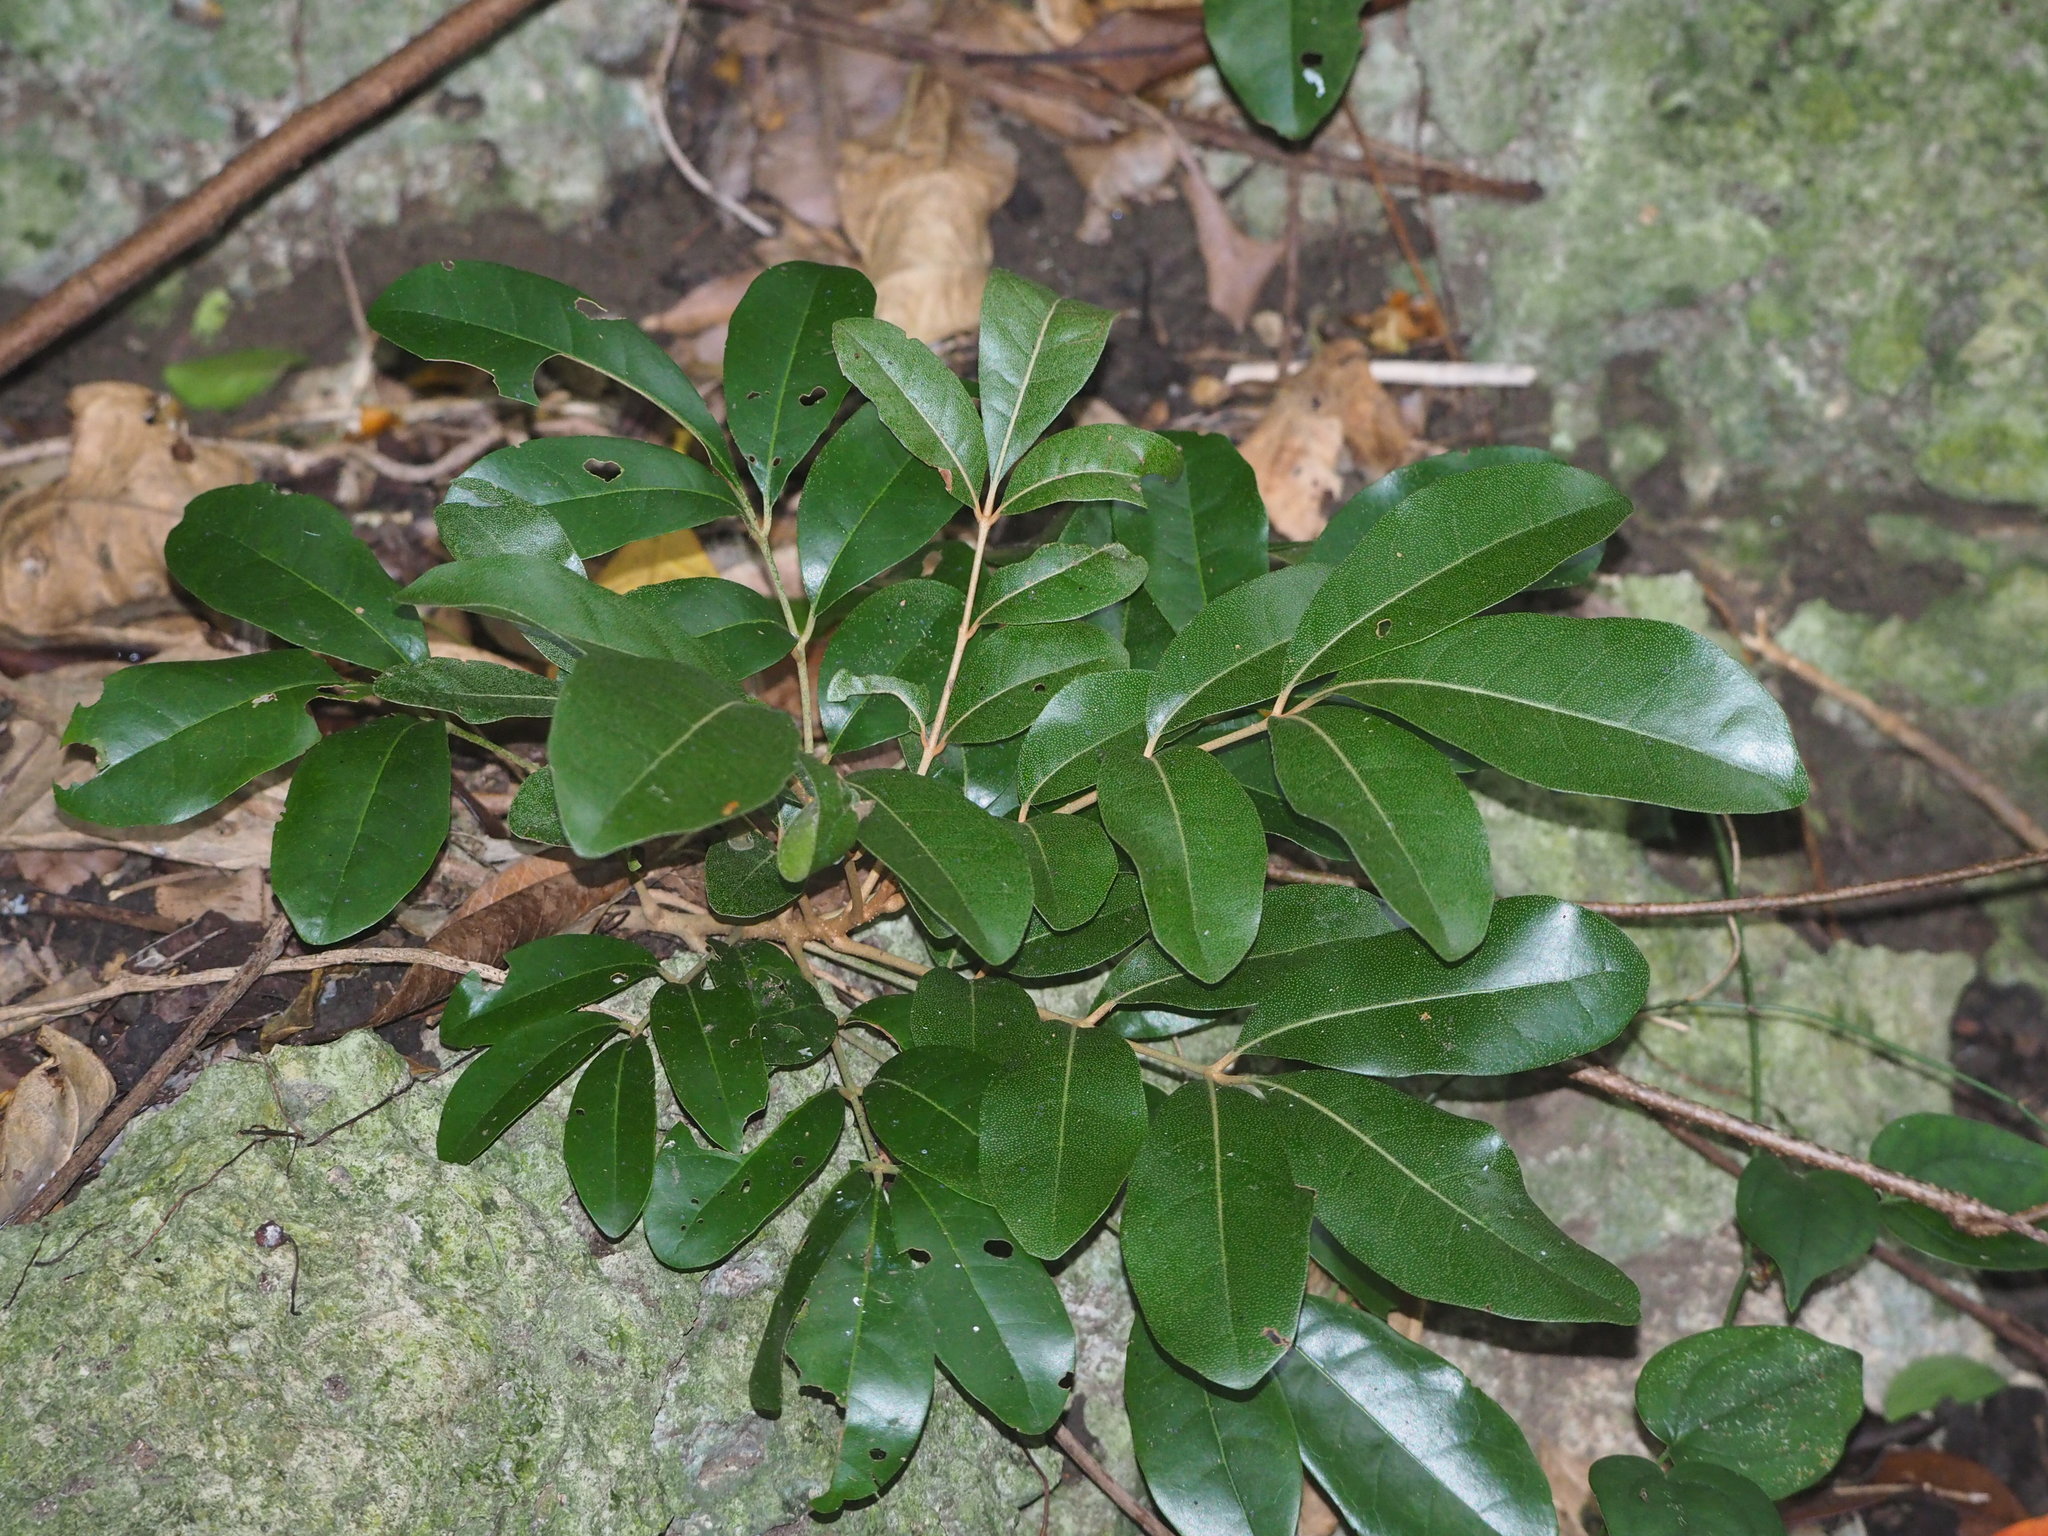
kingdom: Plantae
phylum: Tracheophyta
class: Magnoliopsida
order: Sapindales
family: Meliaceae
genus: Aglaia
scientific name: Aglaia elaeagnoidea
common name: Droopyleaf
